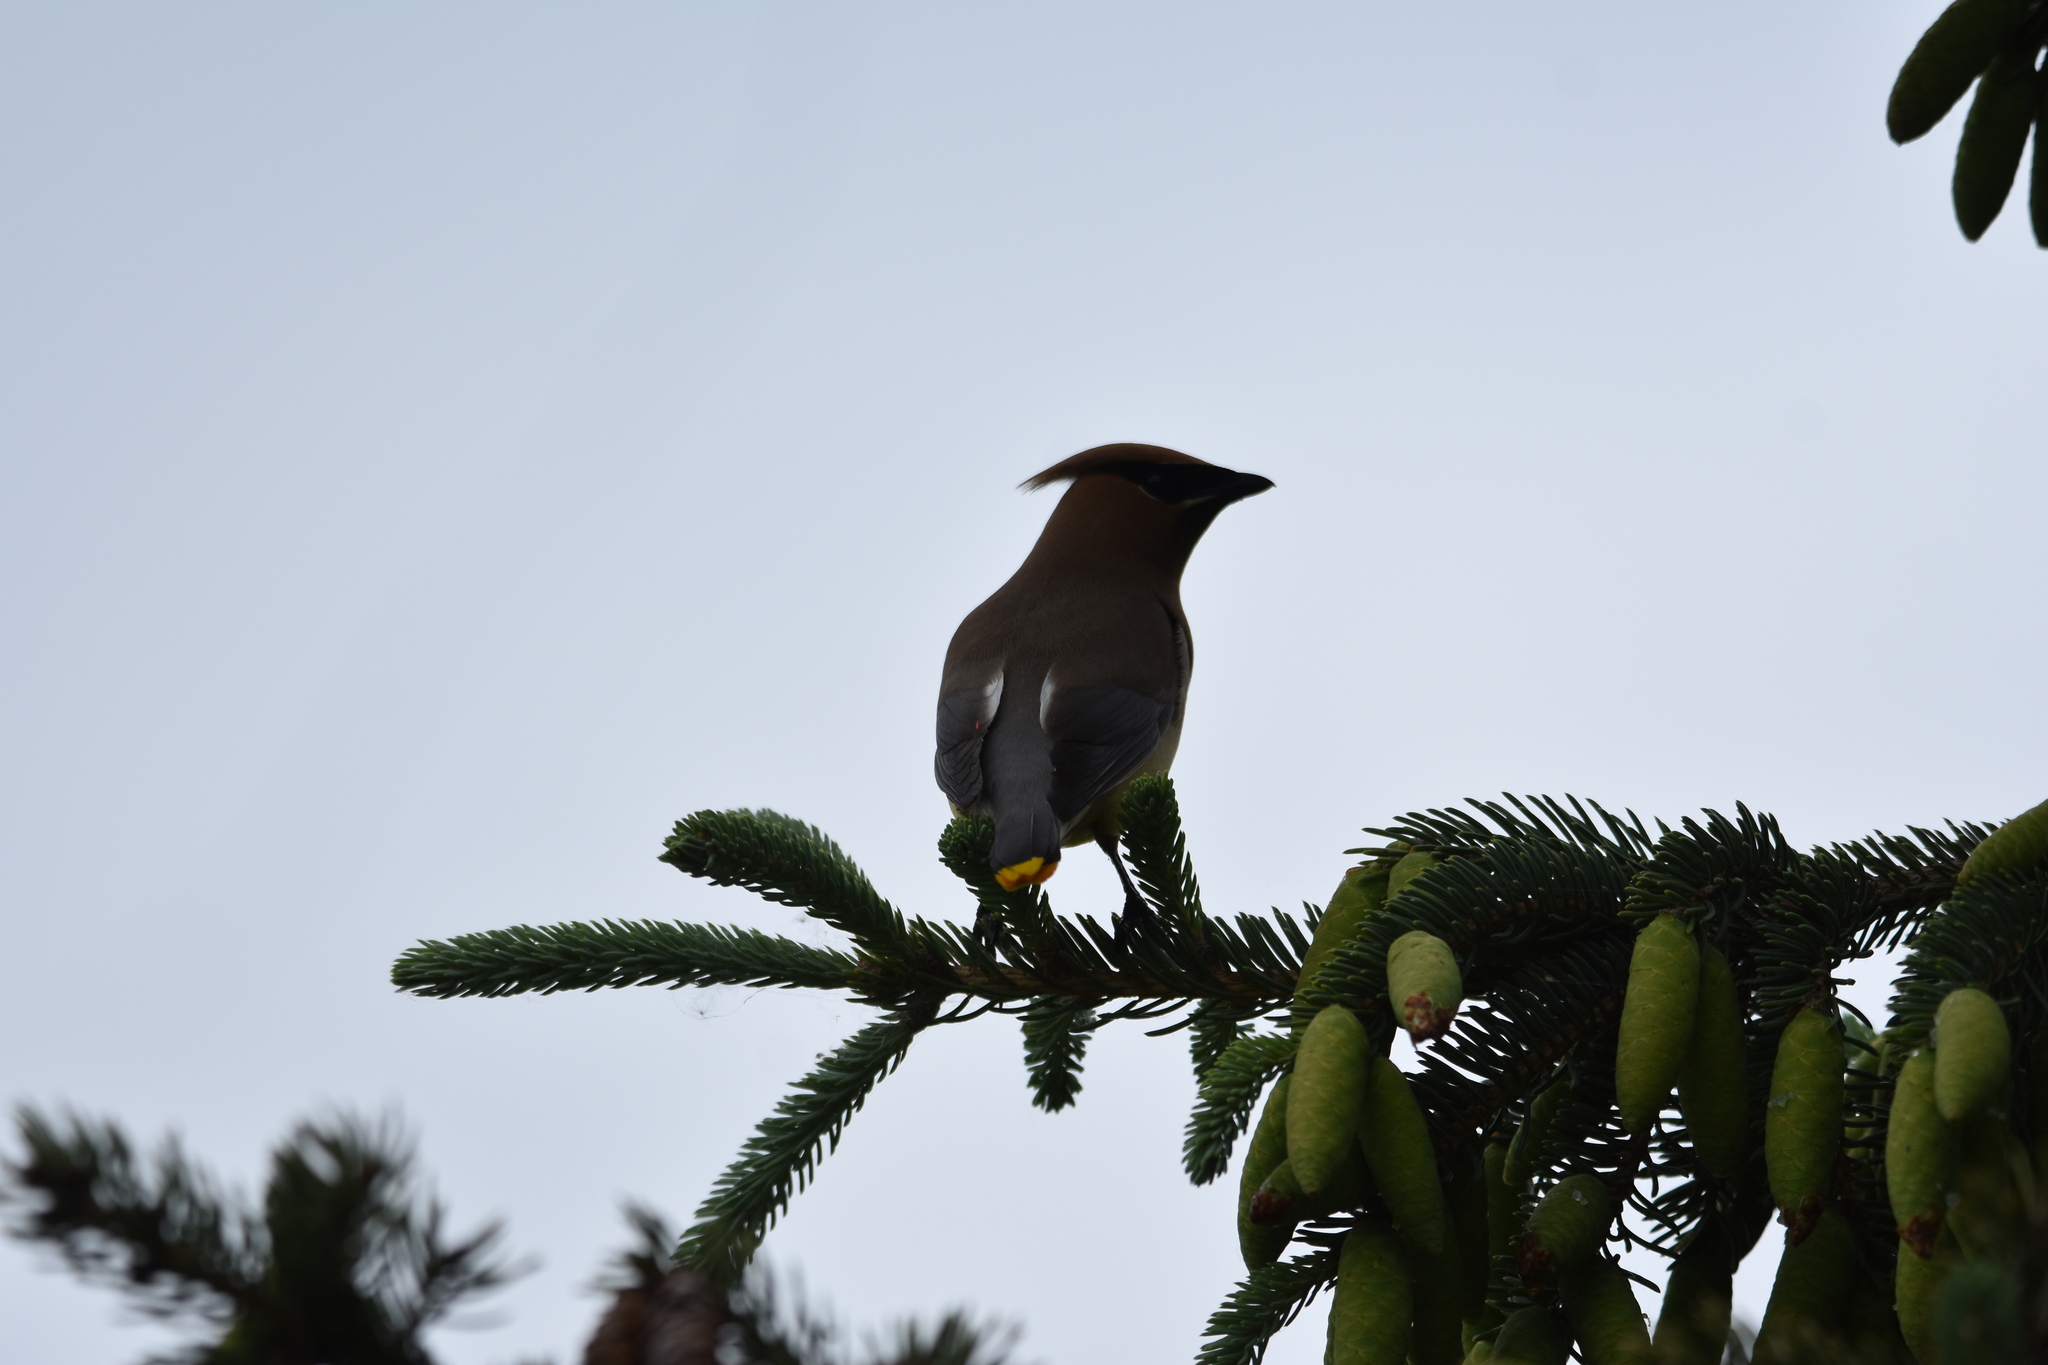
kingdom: Animalia
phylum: Chordata
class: Aves
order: Passeriformes
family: Bombycillidae
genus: Bombycilla
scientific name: Bombycilla cedrorum
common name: Cedar waxwing
